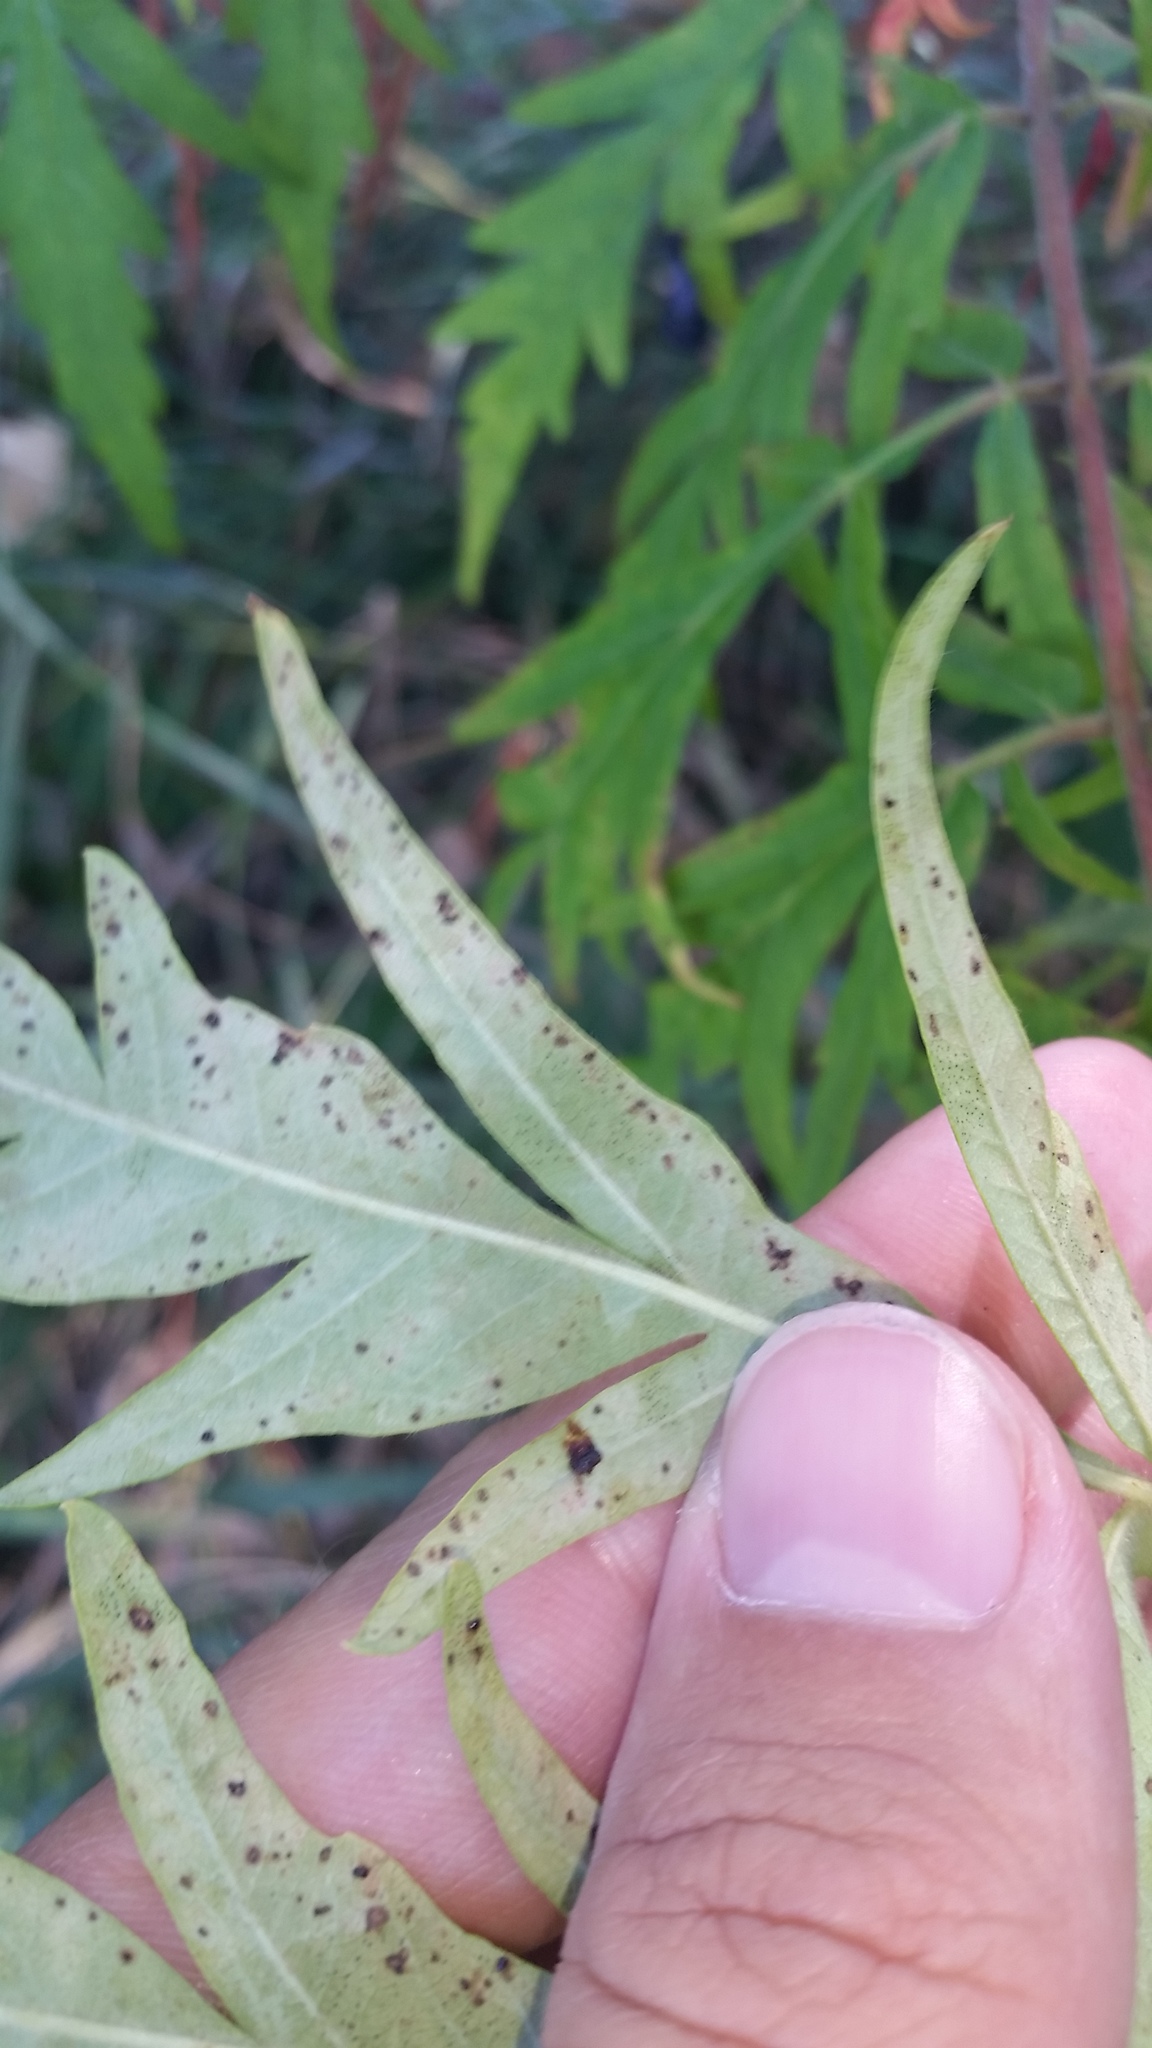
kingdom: Plantae
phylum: Tracheophyta
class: Magnoliopsida
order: Sapindales
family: Anacardiaceae
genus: Rhus
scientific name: Rhus typhina
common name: Staghorn sumac
